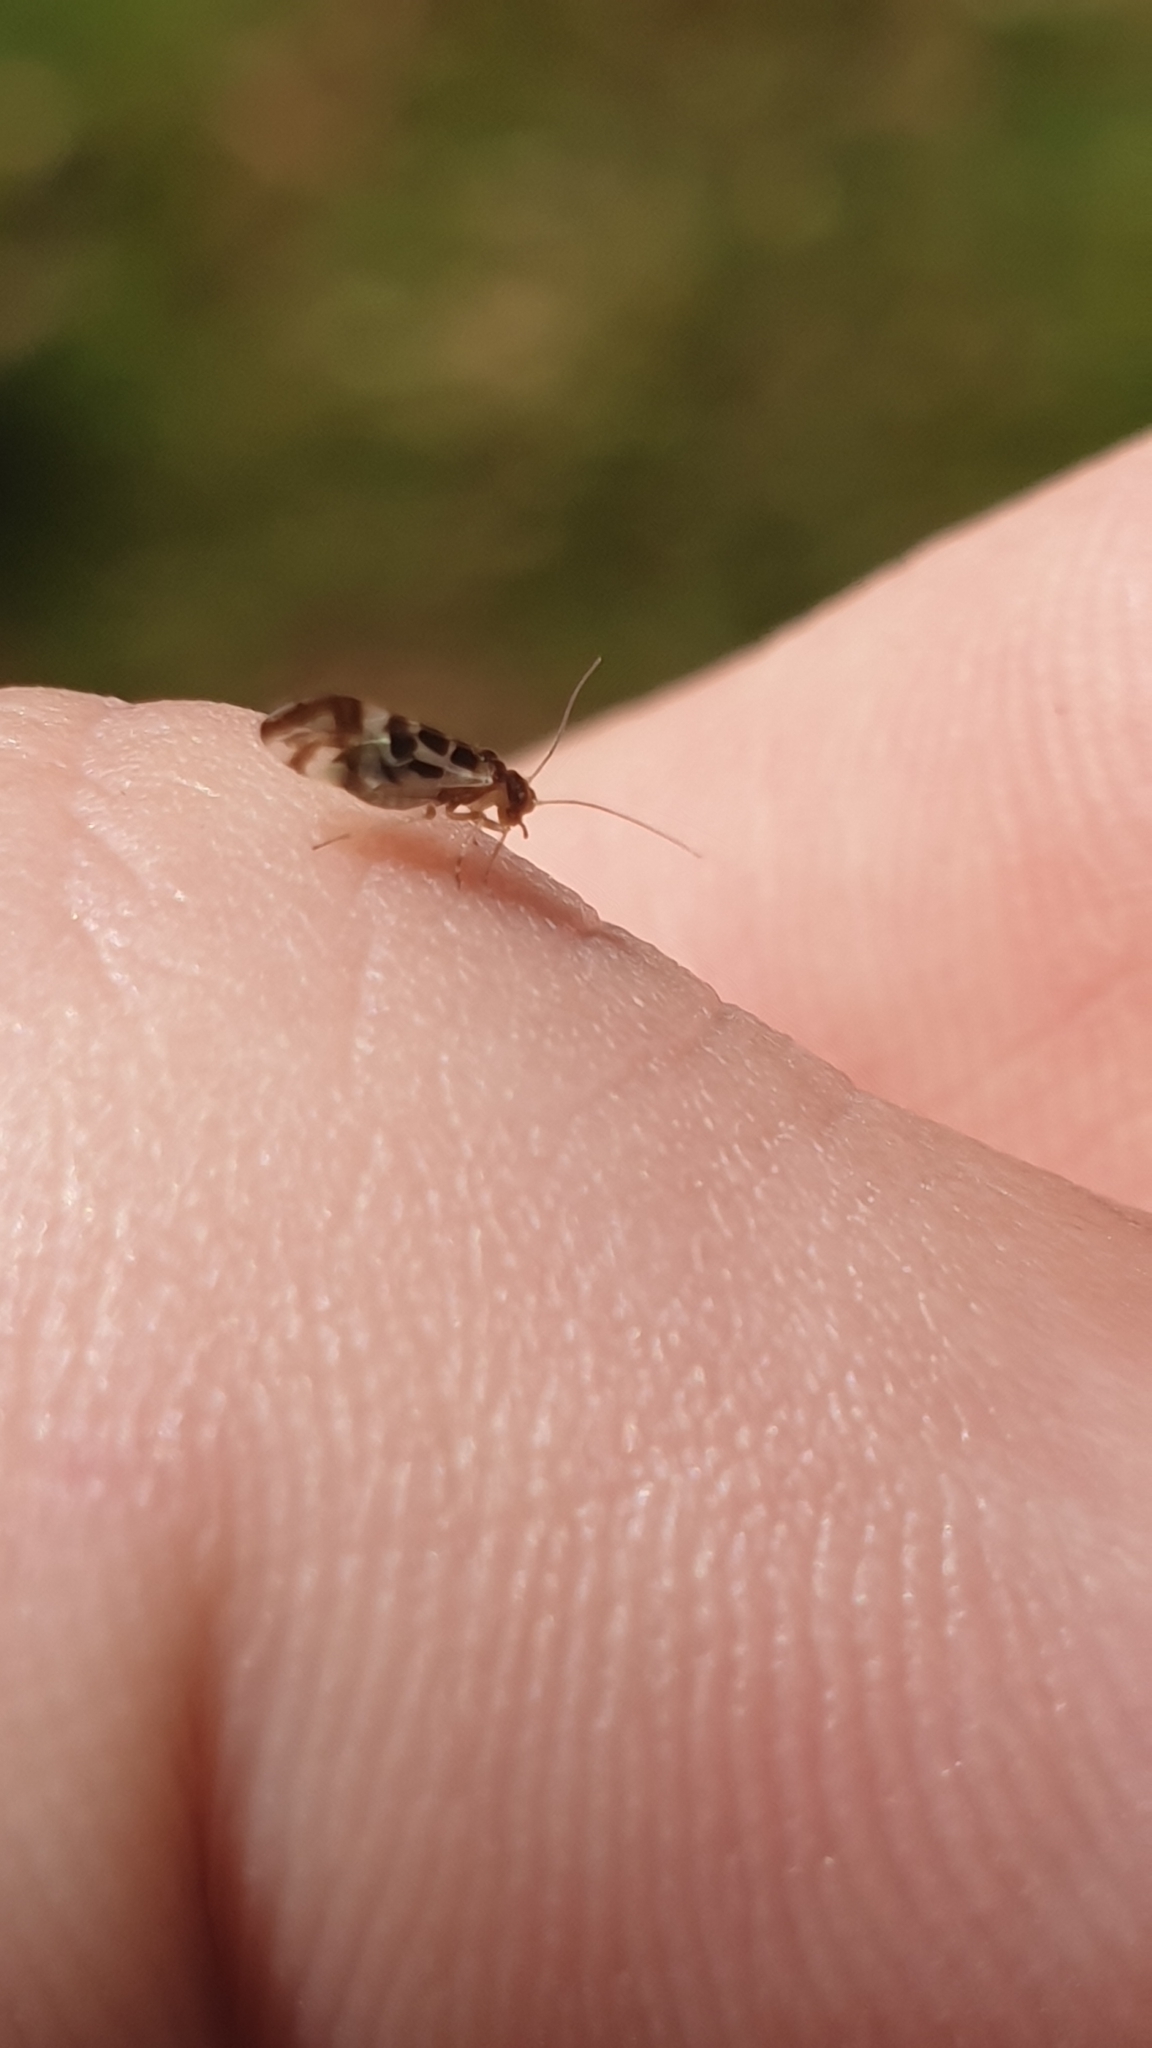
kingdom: Animalia
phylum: Arthropoda
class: Insecta
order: Psocodea
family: Stenopsocidae
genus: Graphopsocus
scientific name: Graphopsocus cruciatus
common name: Lizard bark louse
